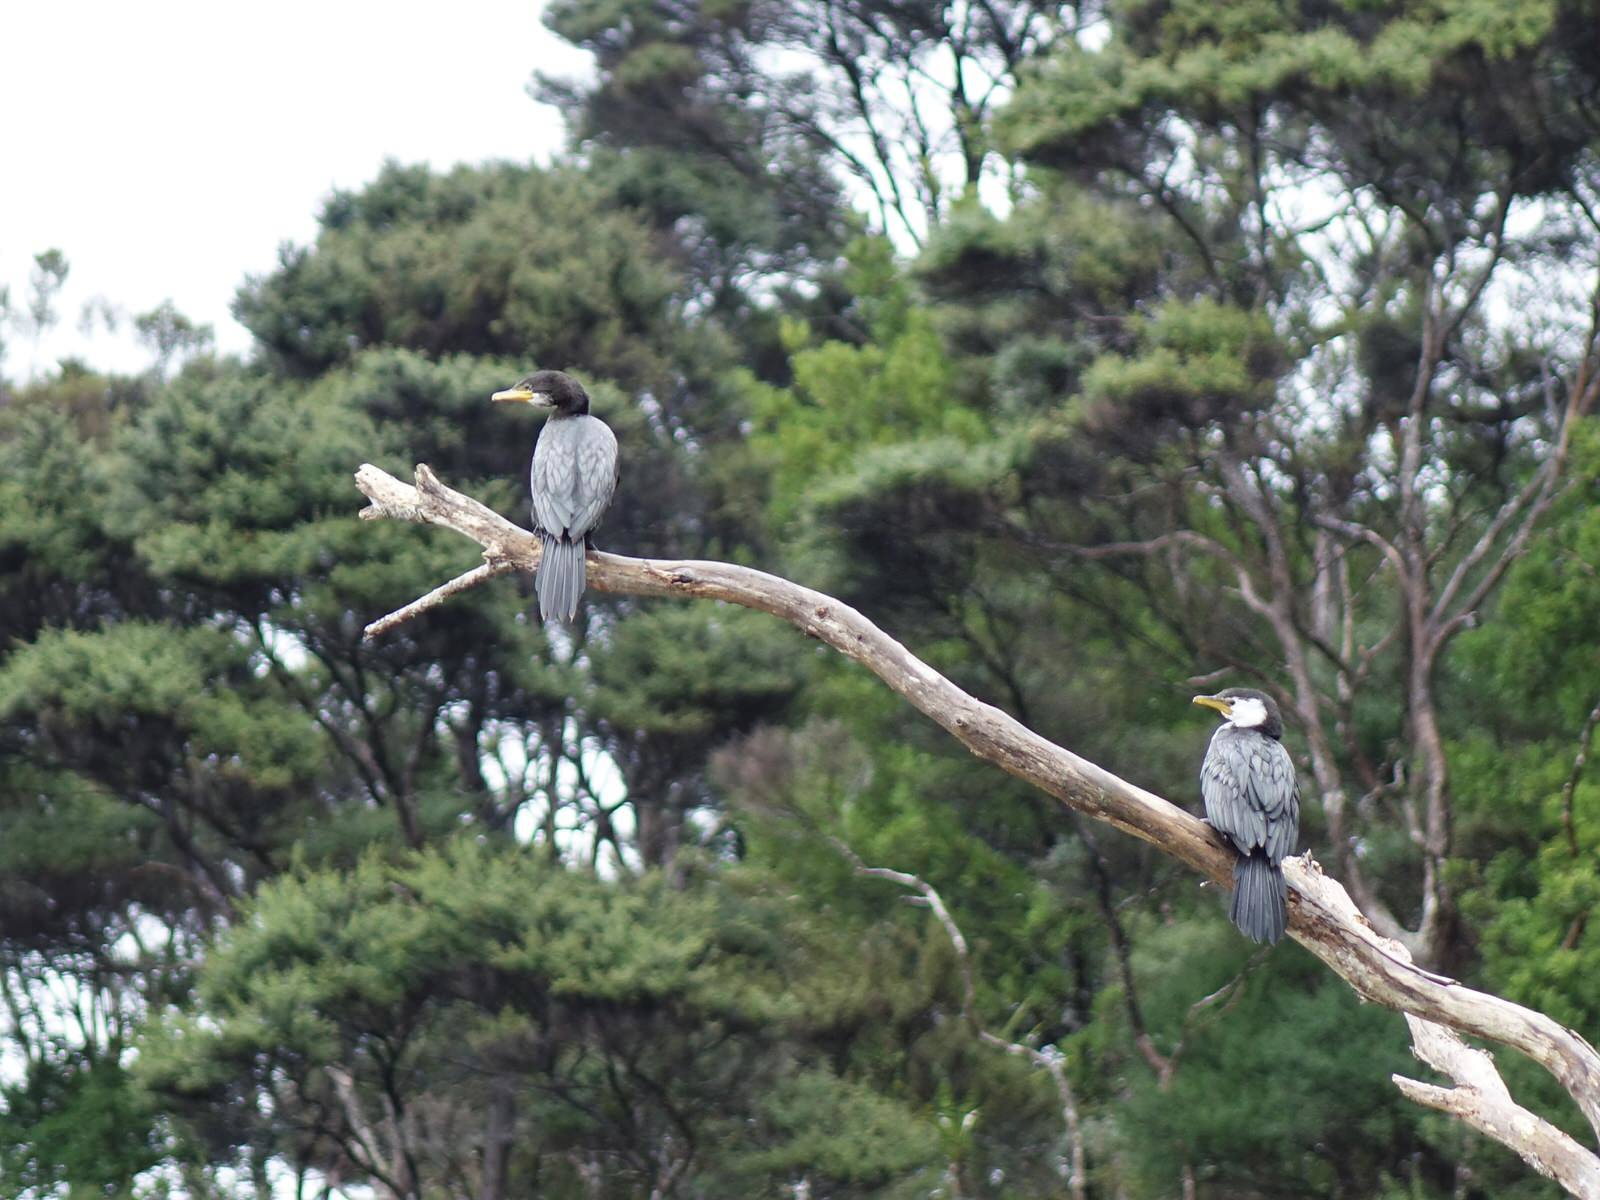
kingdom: Animalia
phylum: Chordata
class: Aves
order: Suliformes
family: Phalacrocoracidae
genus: Microcarbo
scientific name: Microcarbo melanoleucos
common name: Little pied cormorant
